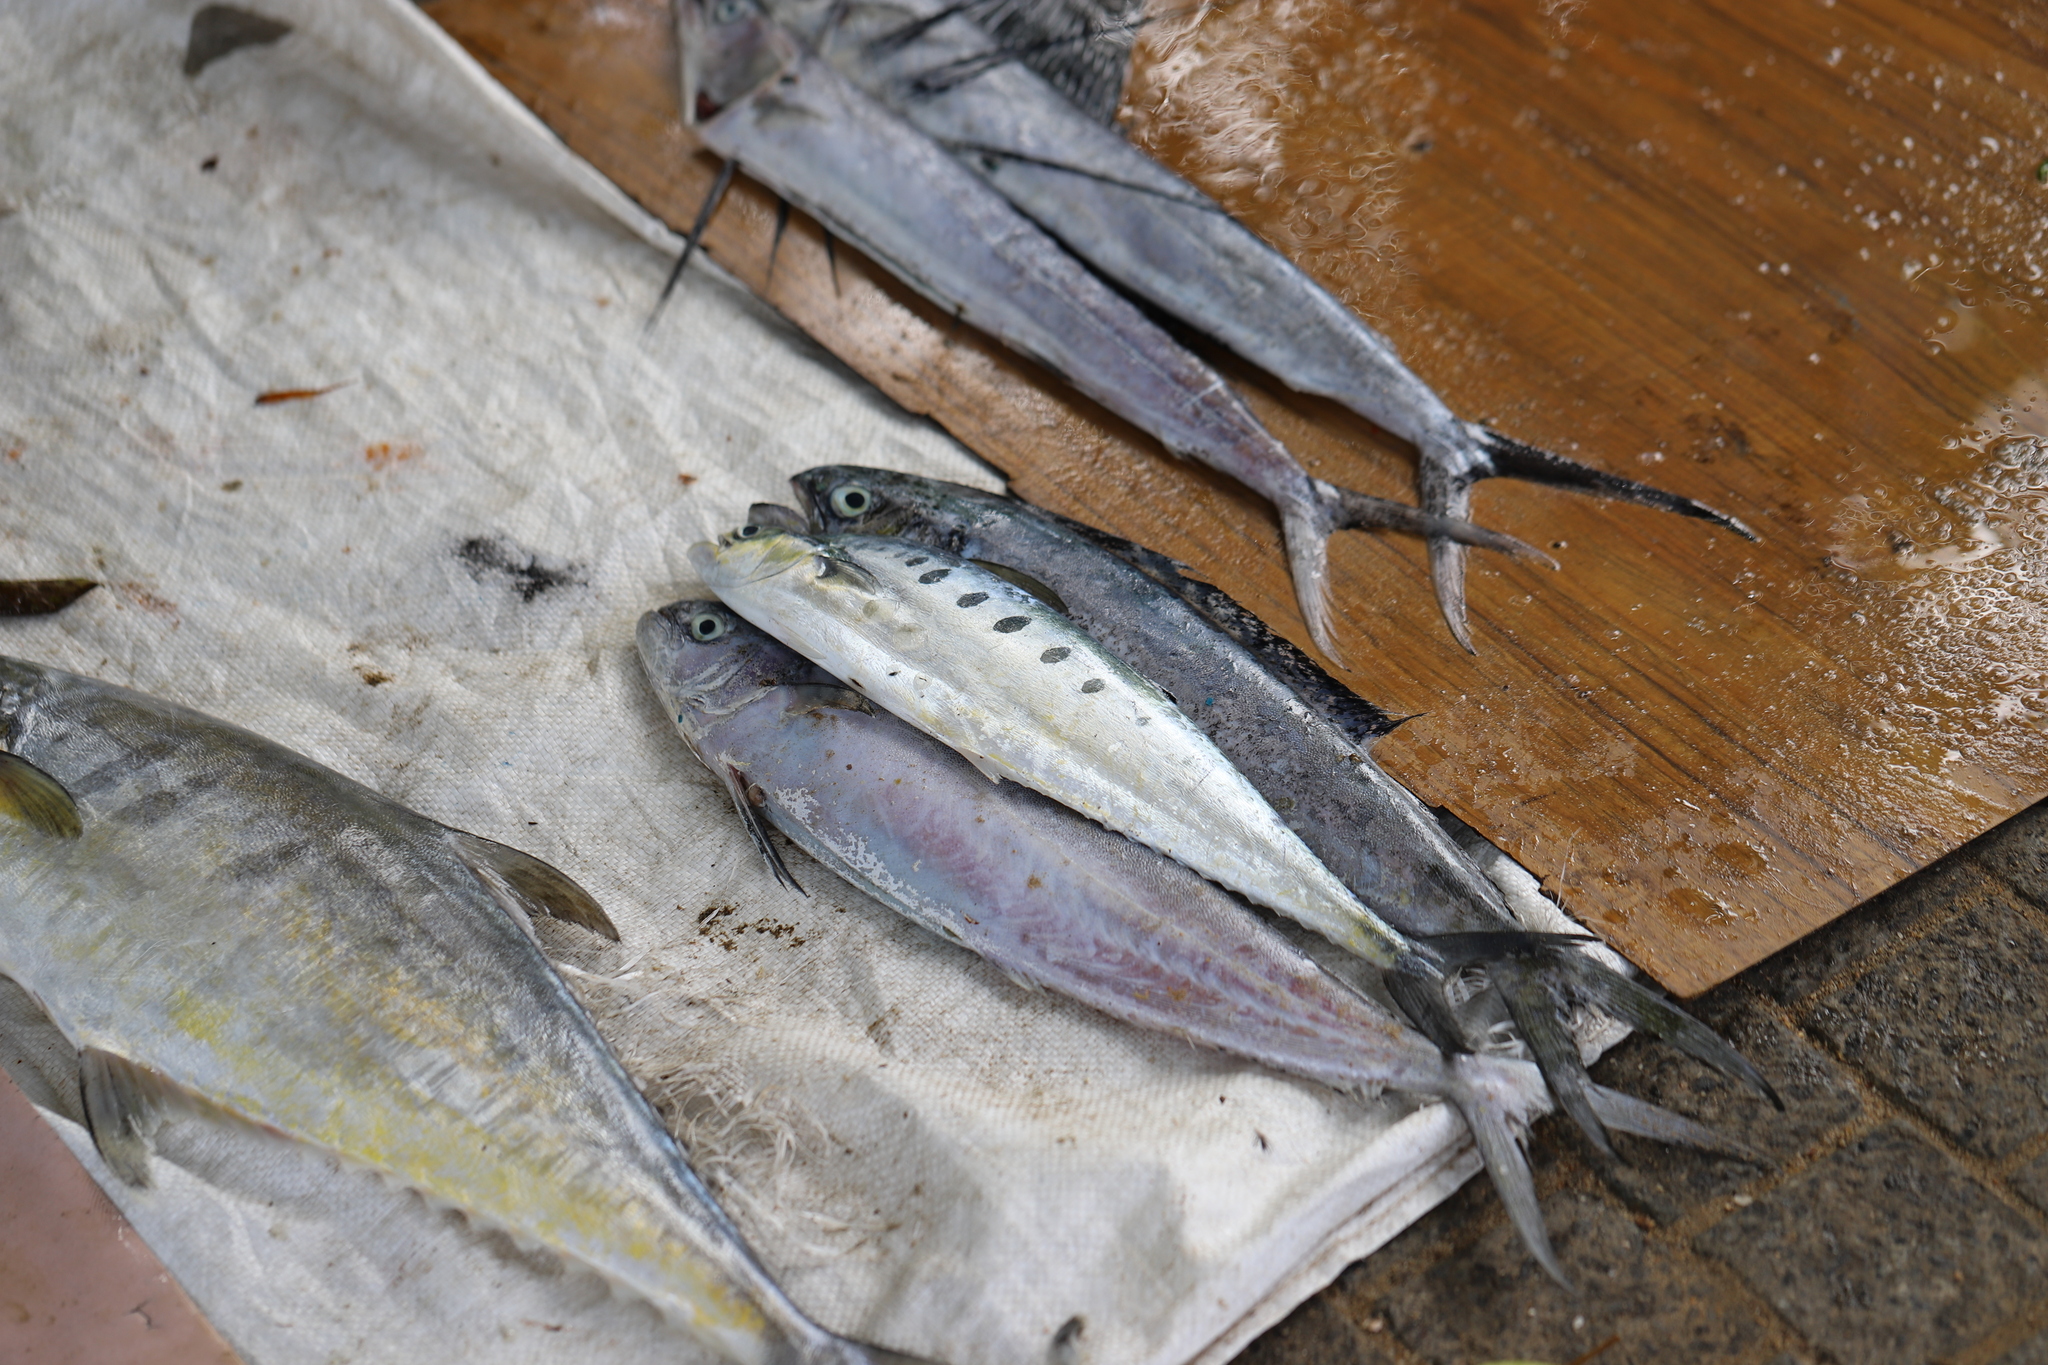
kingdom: Animalia
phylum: Chordata
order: Perciformes
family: Carangidae
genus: Scomberoides
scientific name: Scomberoides tol
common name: Needlescaled queenfish
